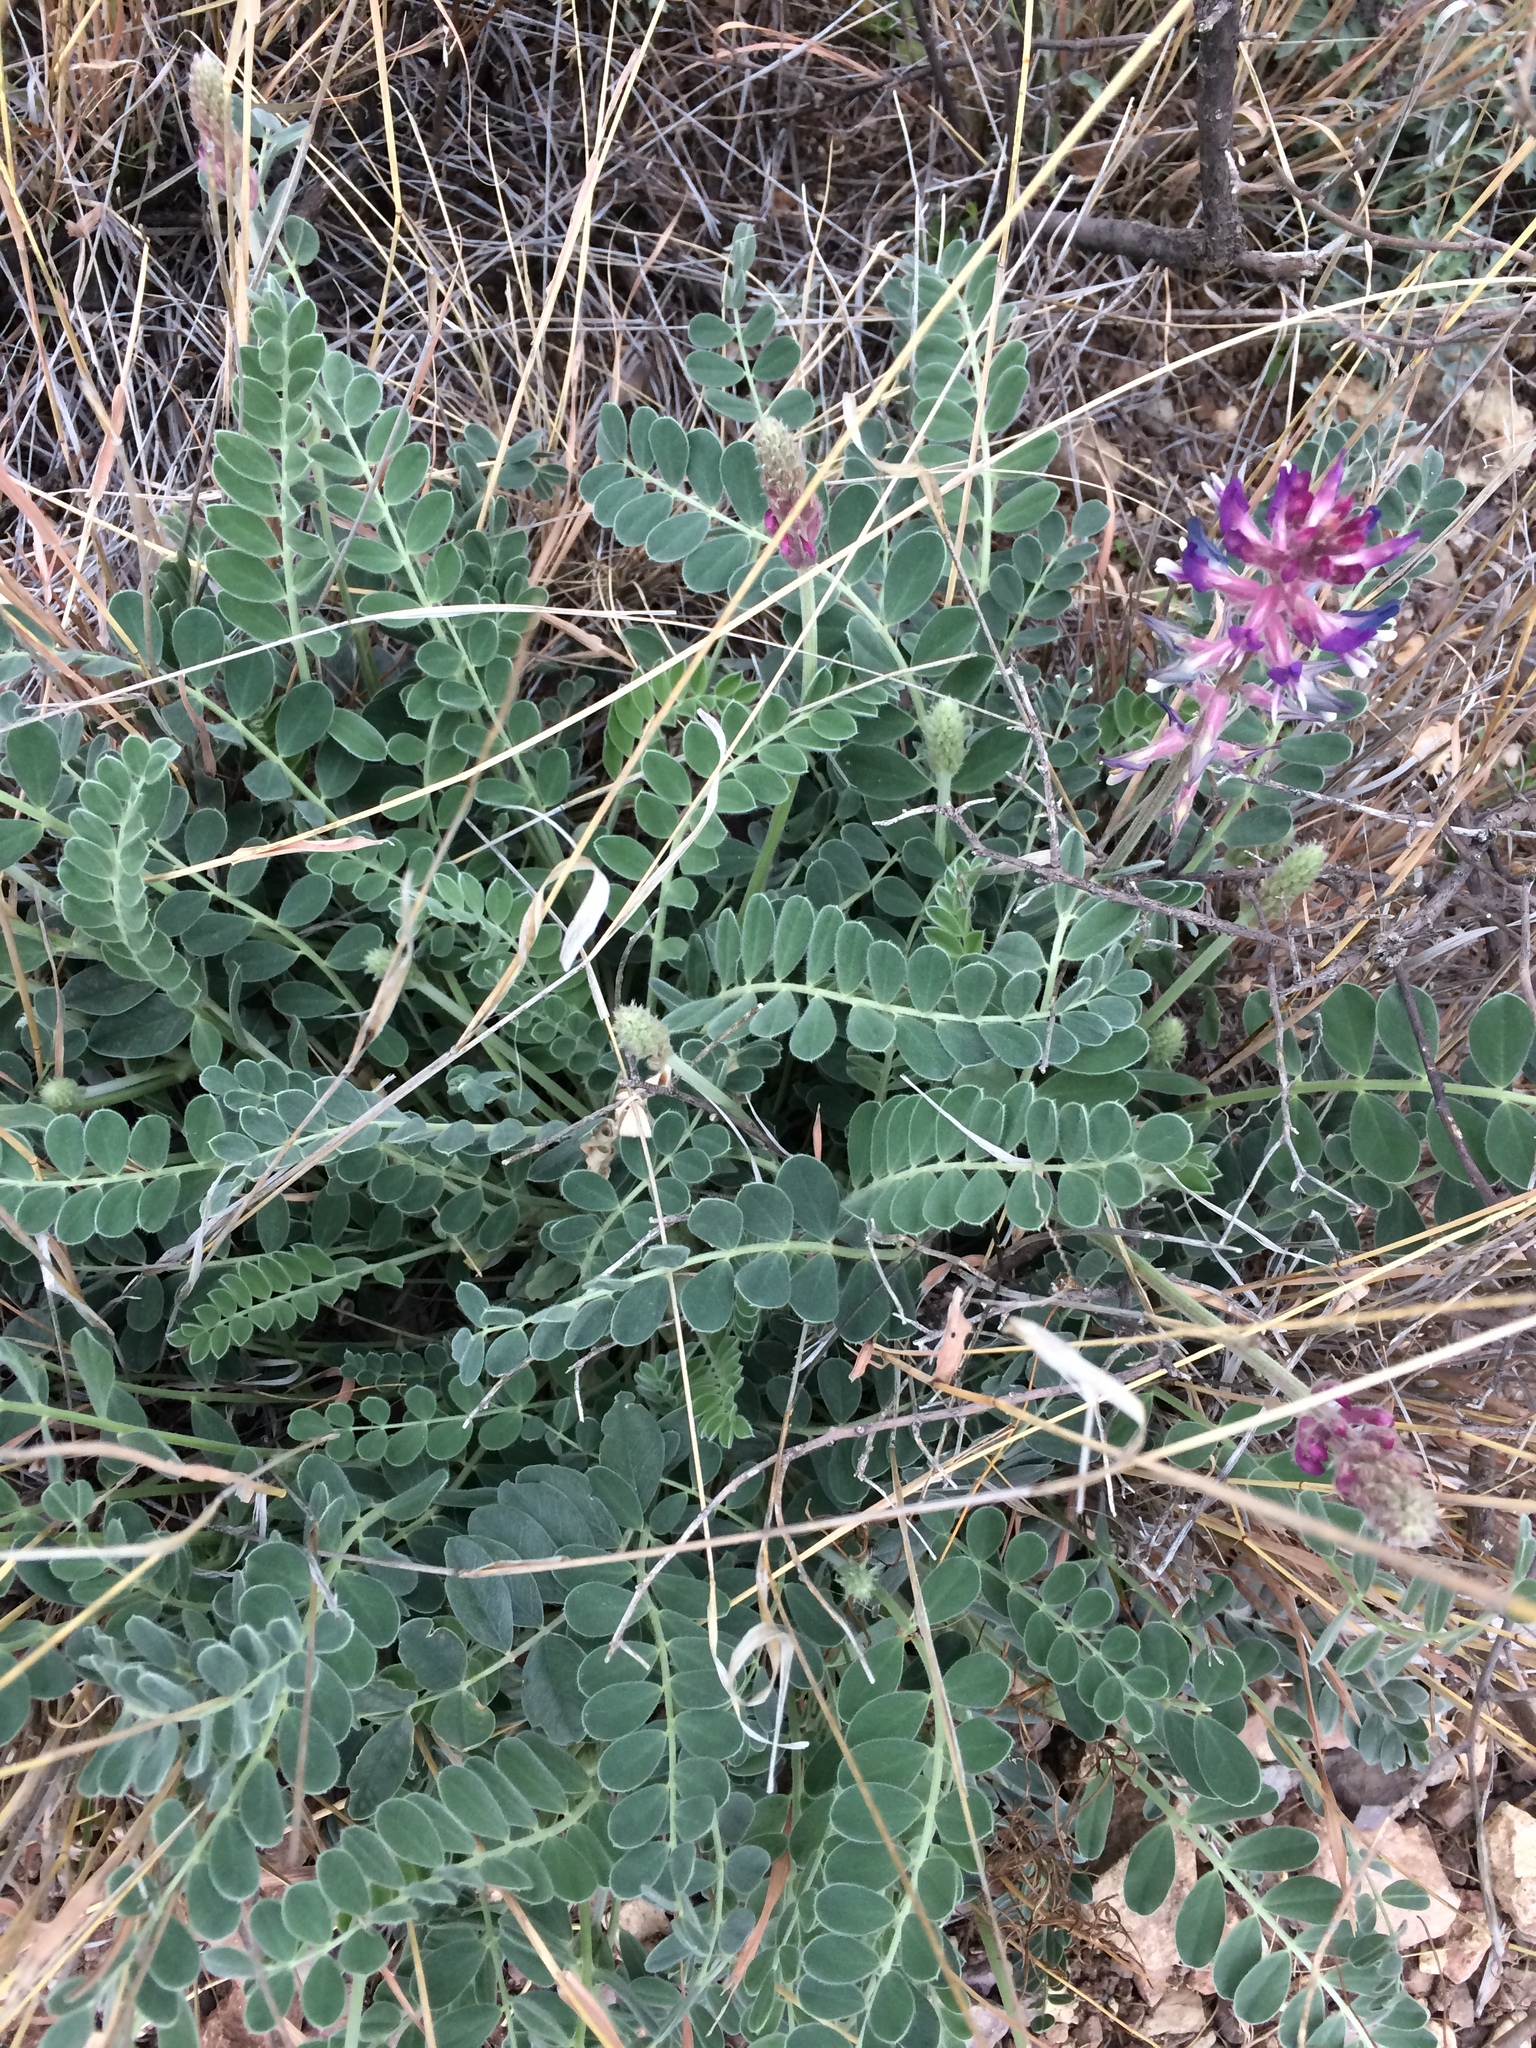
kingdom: Plantae
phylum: Tracheophyta
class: Magnoliopsida
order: Fabales
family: Fabaceae
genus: Astragalus
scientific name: Astragalus mollissimus
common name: Woolly locoweed
